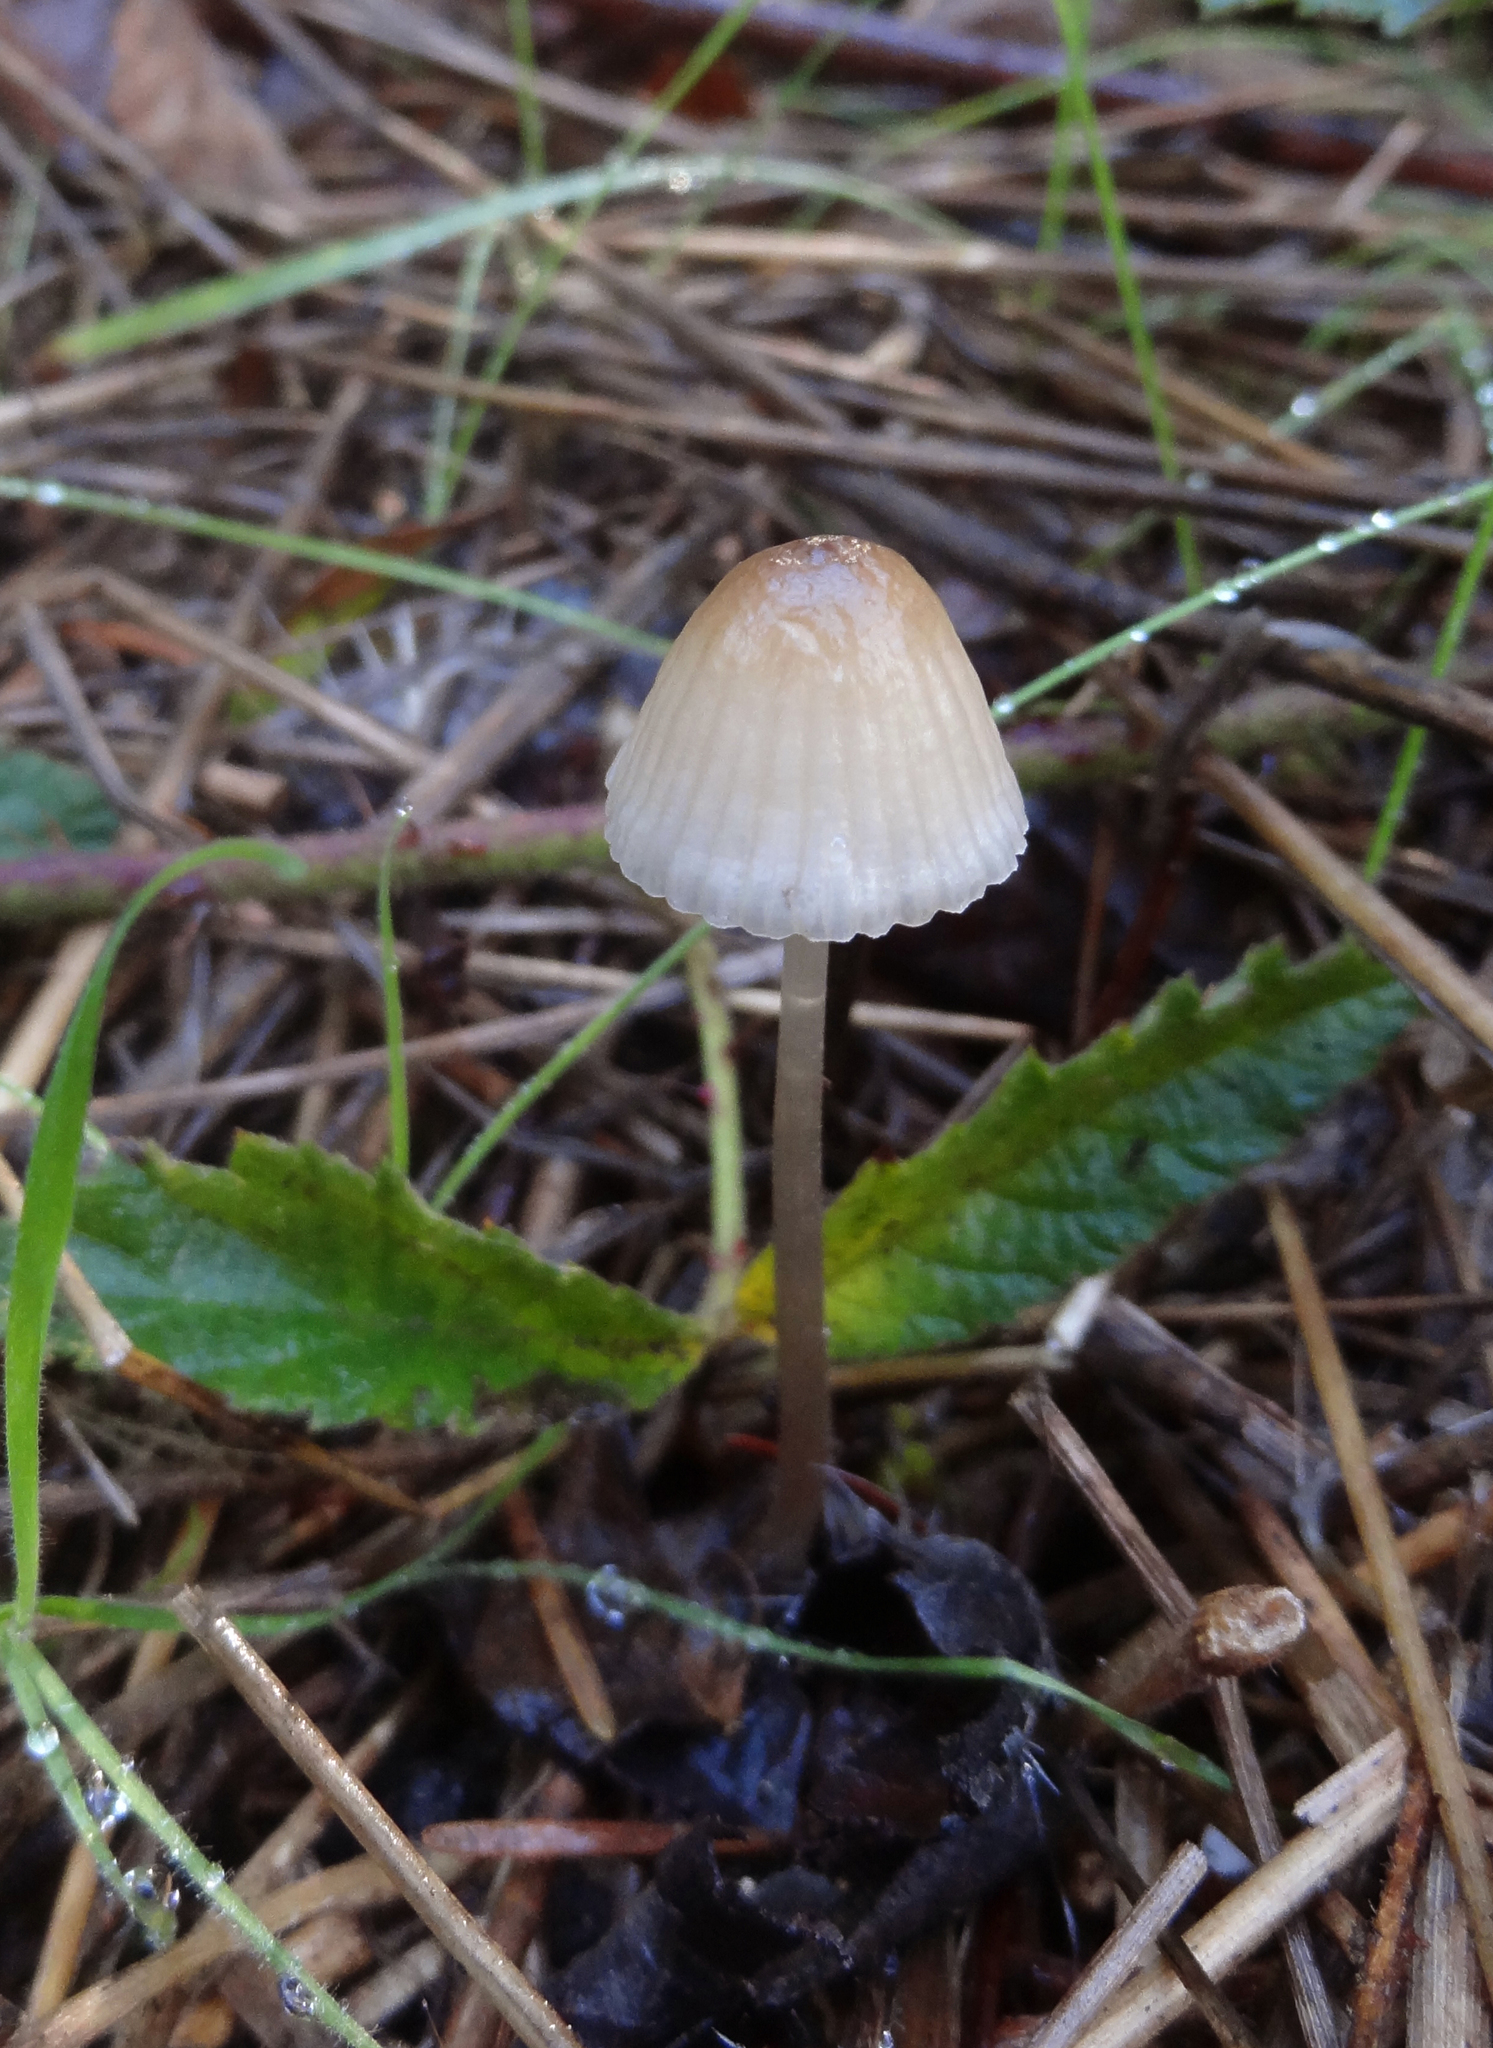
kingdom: Fungi
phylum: Basidiomycota
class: Agaricomycetes
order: Agaricales
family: Mycenaceae
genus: Mycena
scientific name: Mycena capillaripes
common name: Pinkedge bonnet
